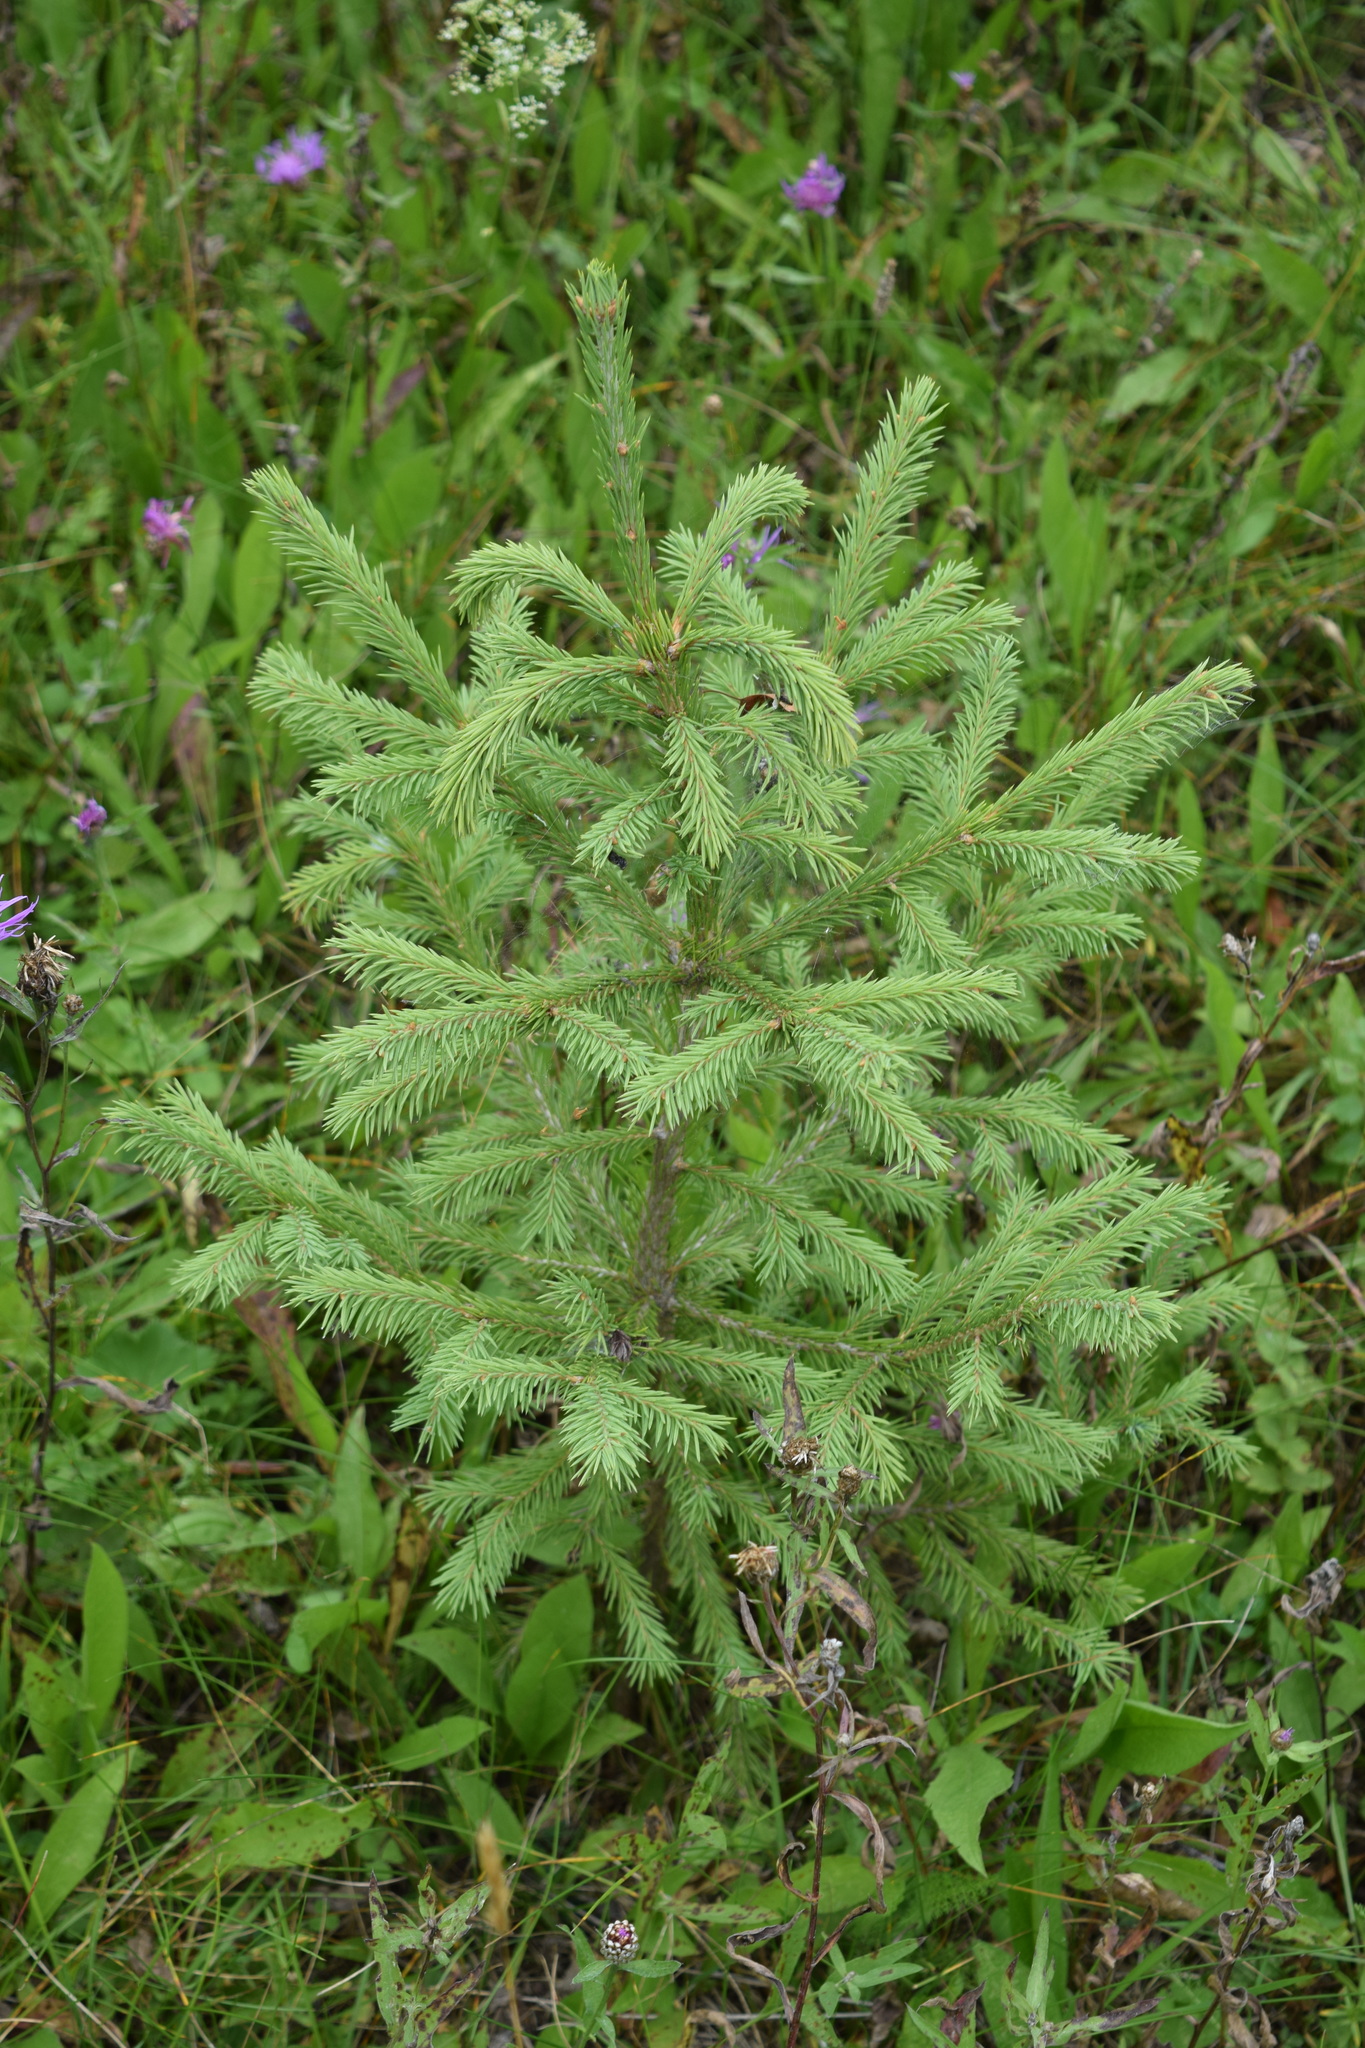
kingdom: Plantae
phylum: Tracheophyta
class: Pinopsida
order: Pinales
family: Pinaceae
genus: Picea
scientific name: Picea abies
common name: Norway spruce
